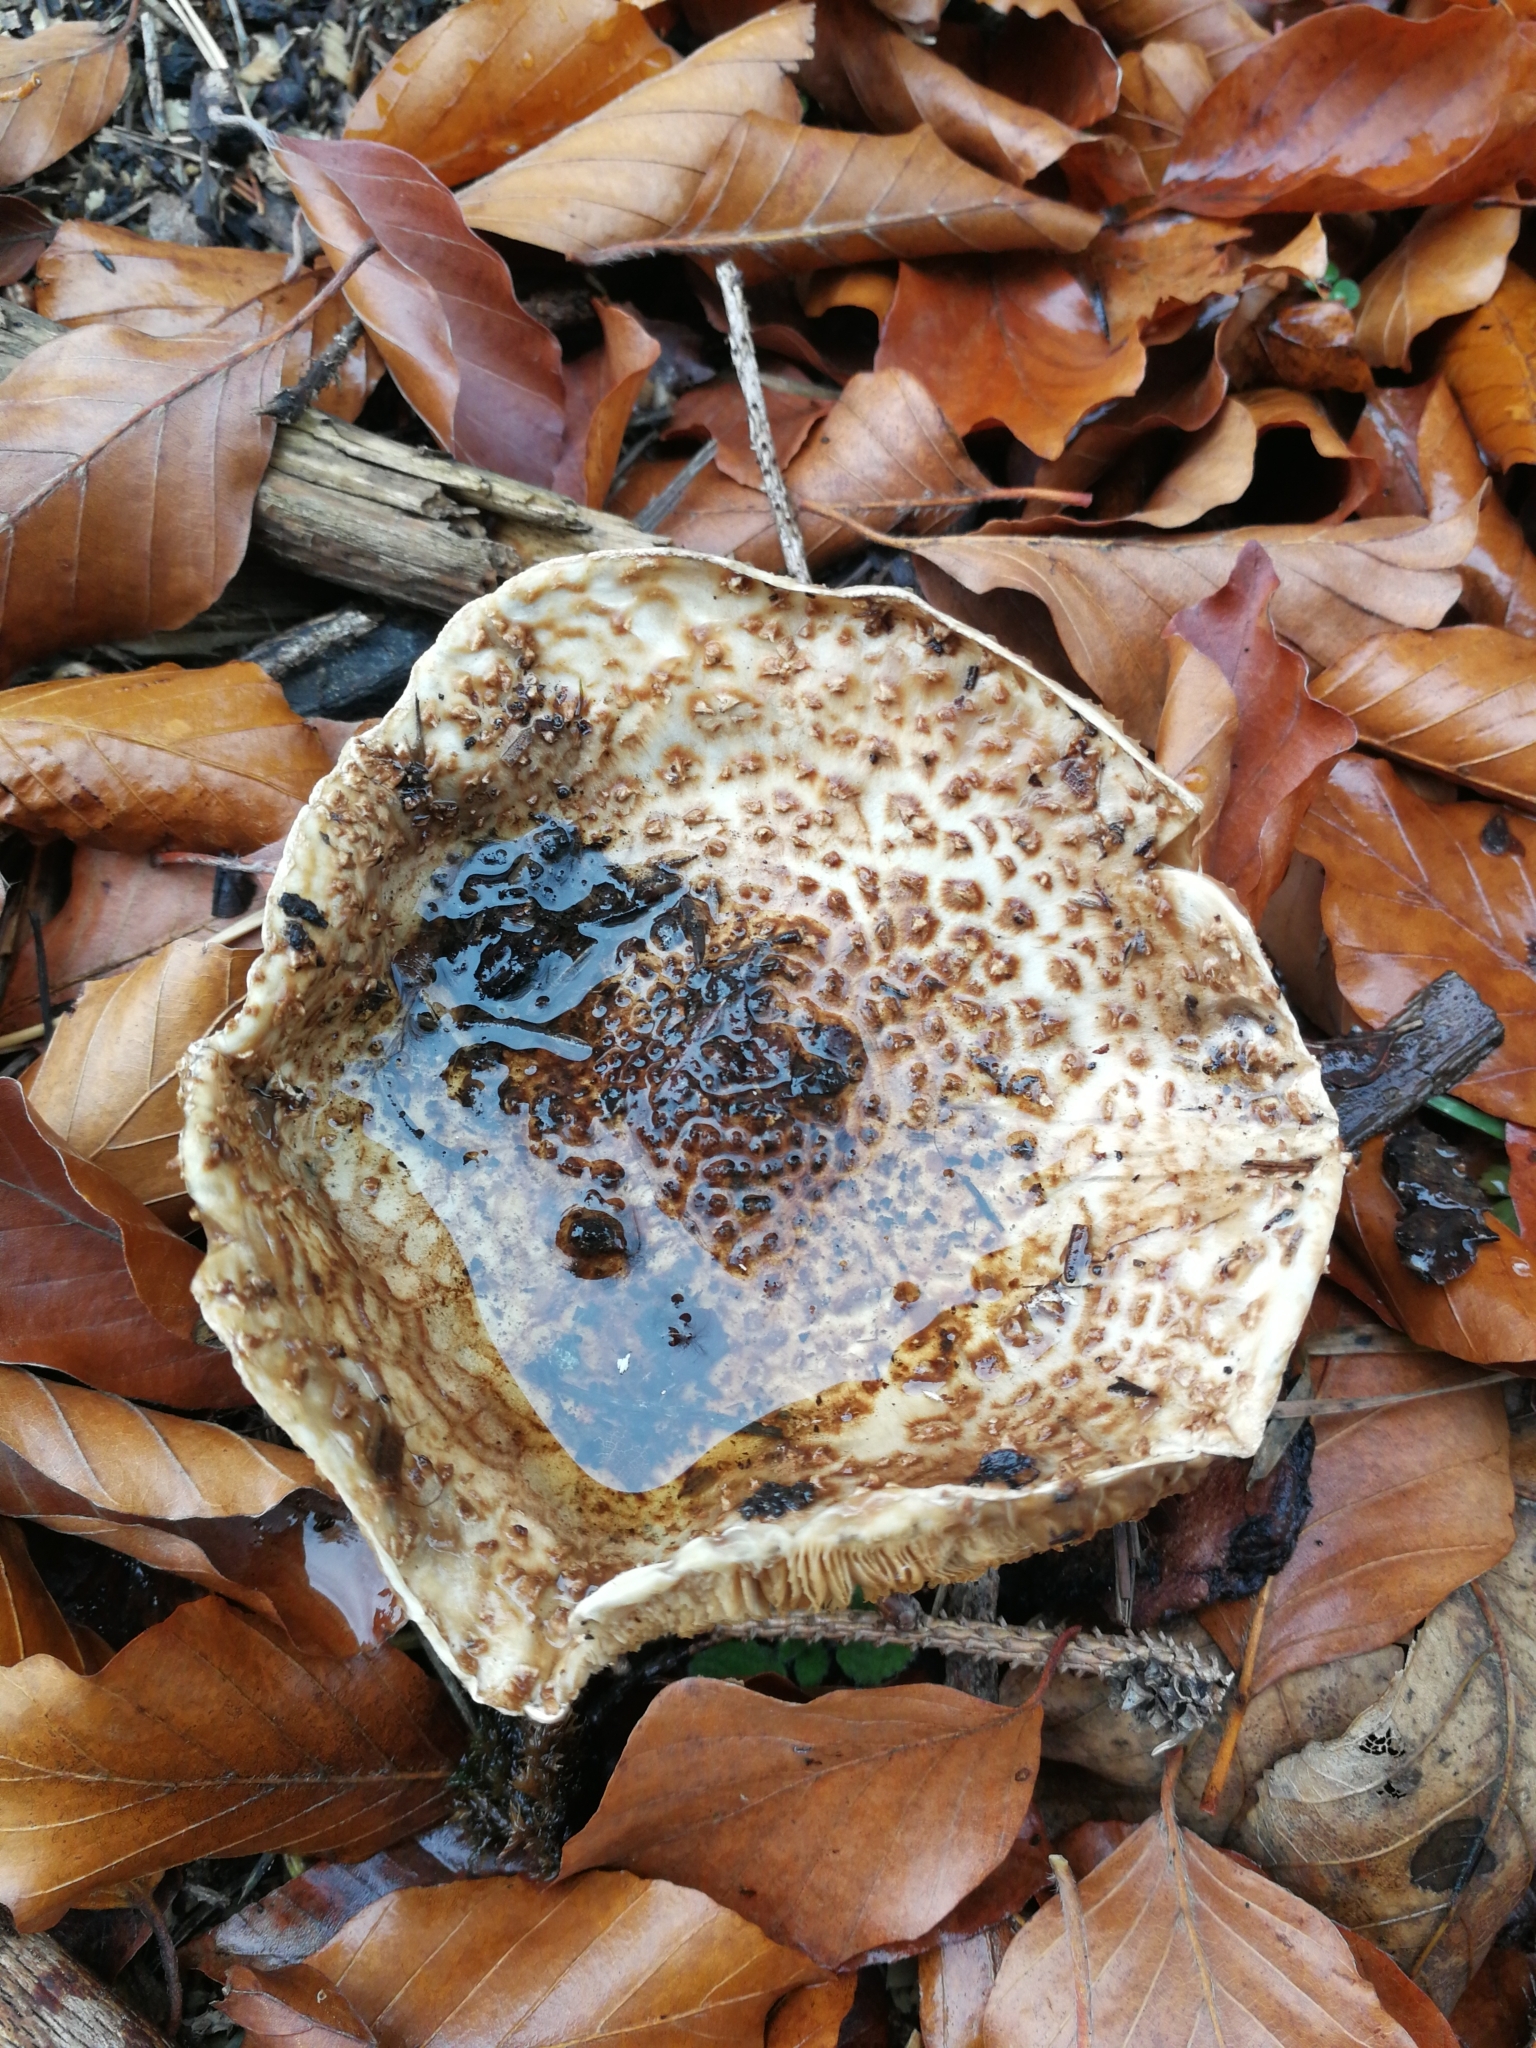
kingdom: Fungi
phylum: Basidiomycota
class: Agaricomycetes
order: Agaricales
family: Agaricaceae
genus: Echinoderma
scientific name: Echinoderma asperum
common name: Freckled dapperling
